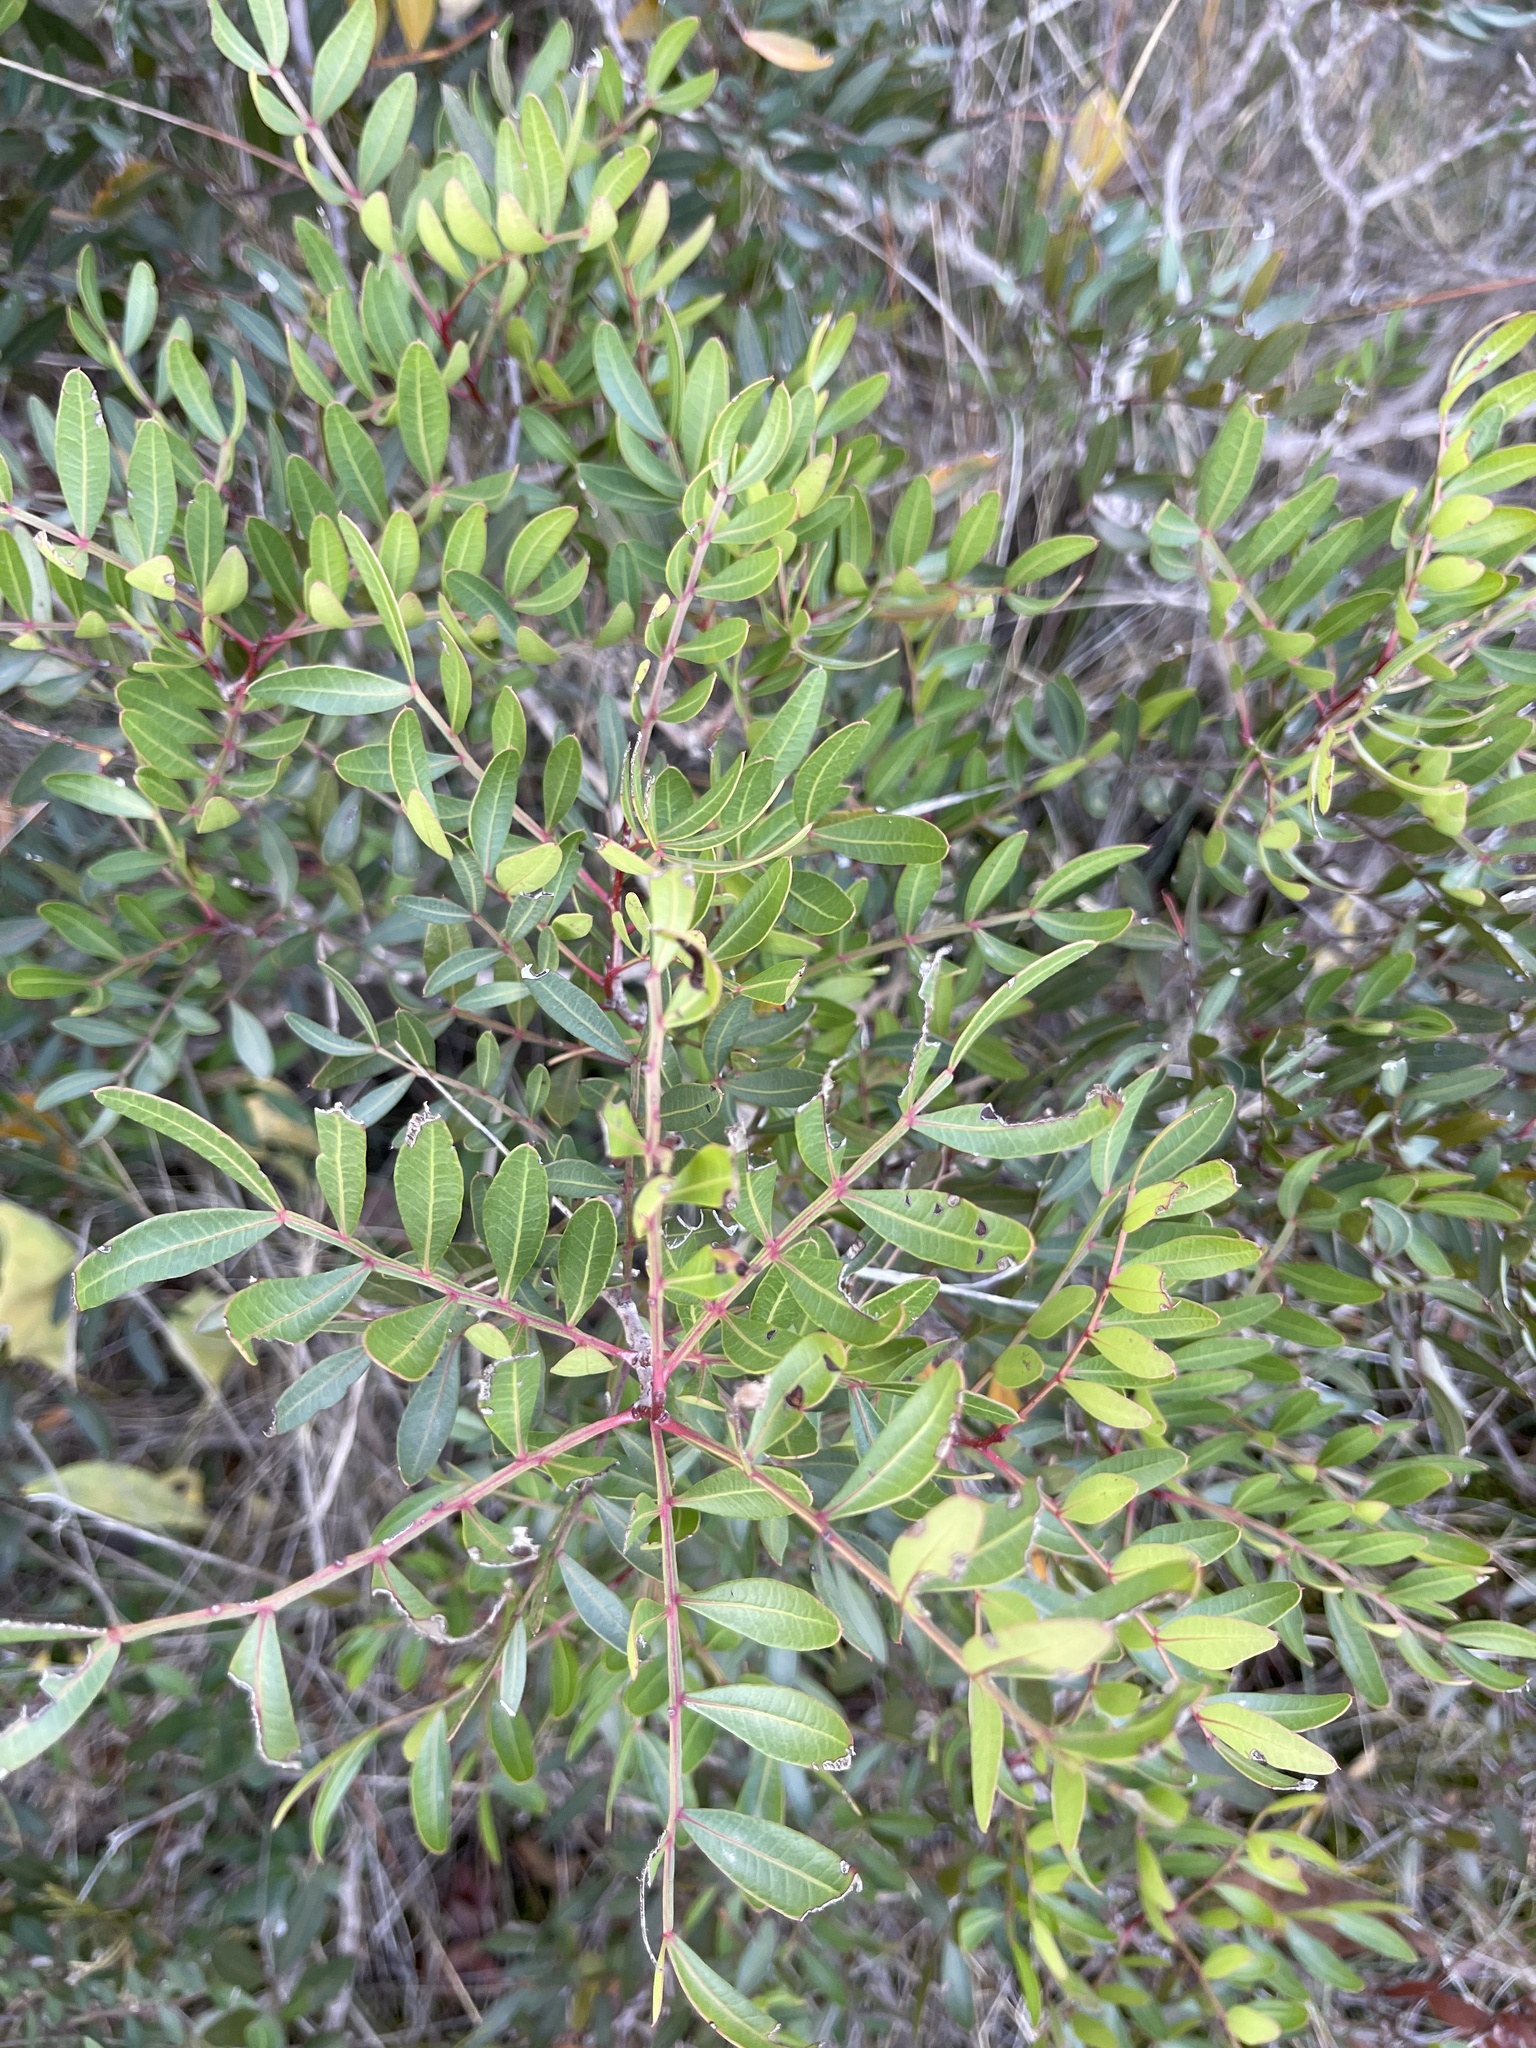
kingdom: Plantae
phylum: Tracheophyta
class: Magnoliopsida
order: Sapindales
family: Anacardiaceae
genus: Pistacia
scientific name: Pistacia lentiscus
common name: Lentisk
